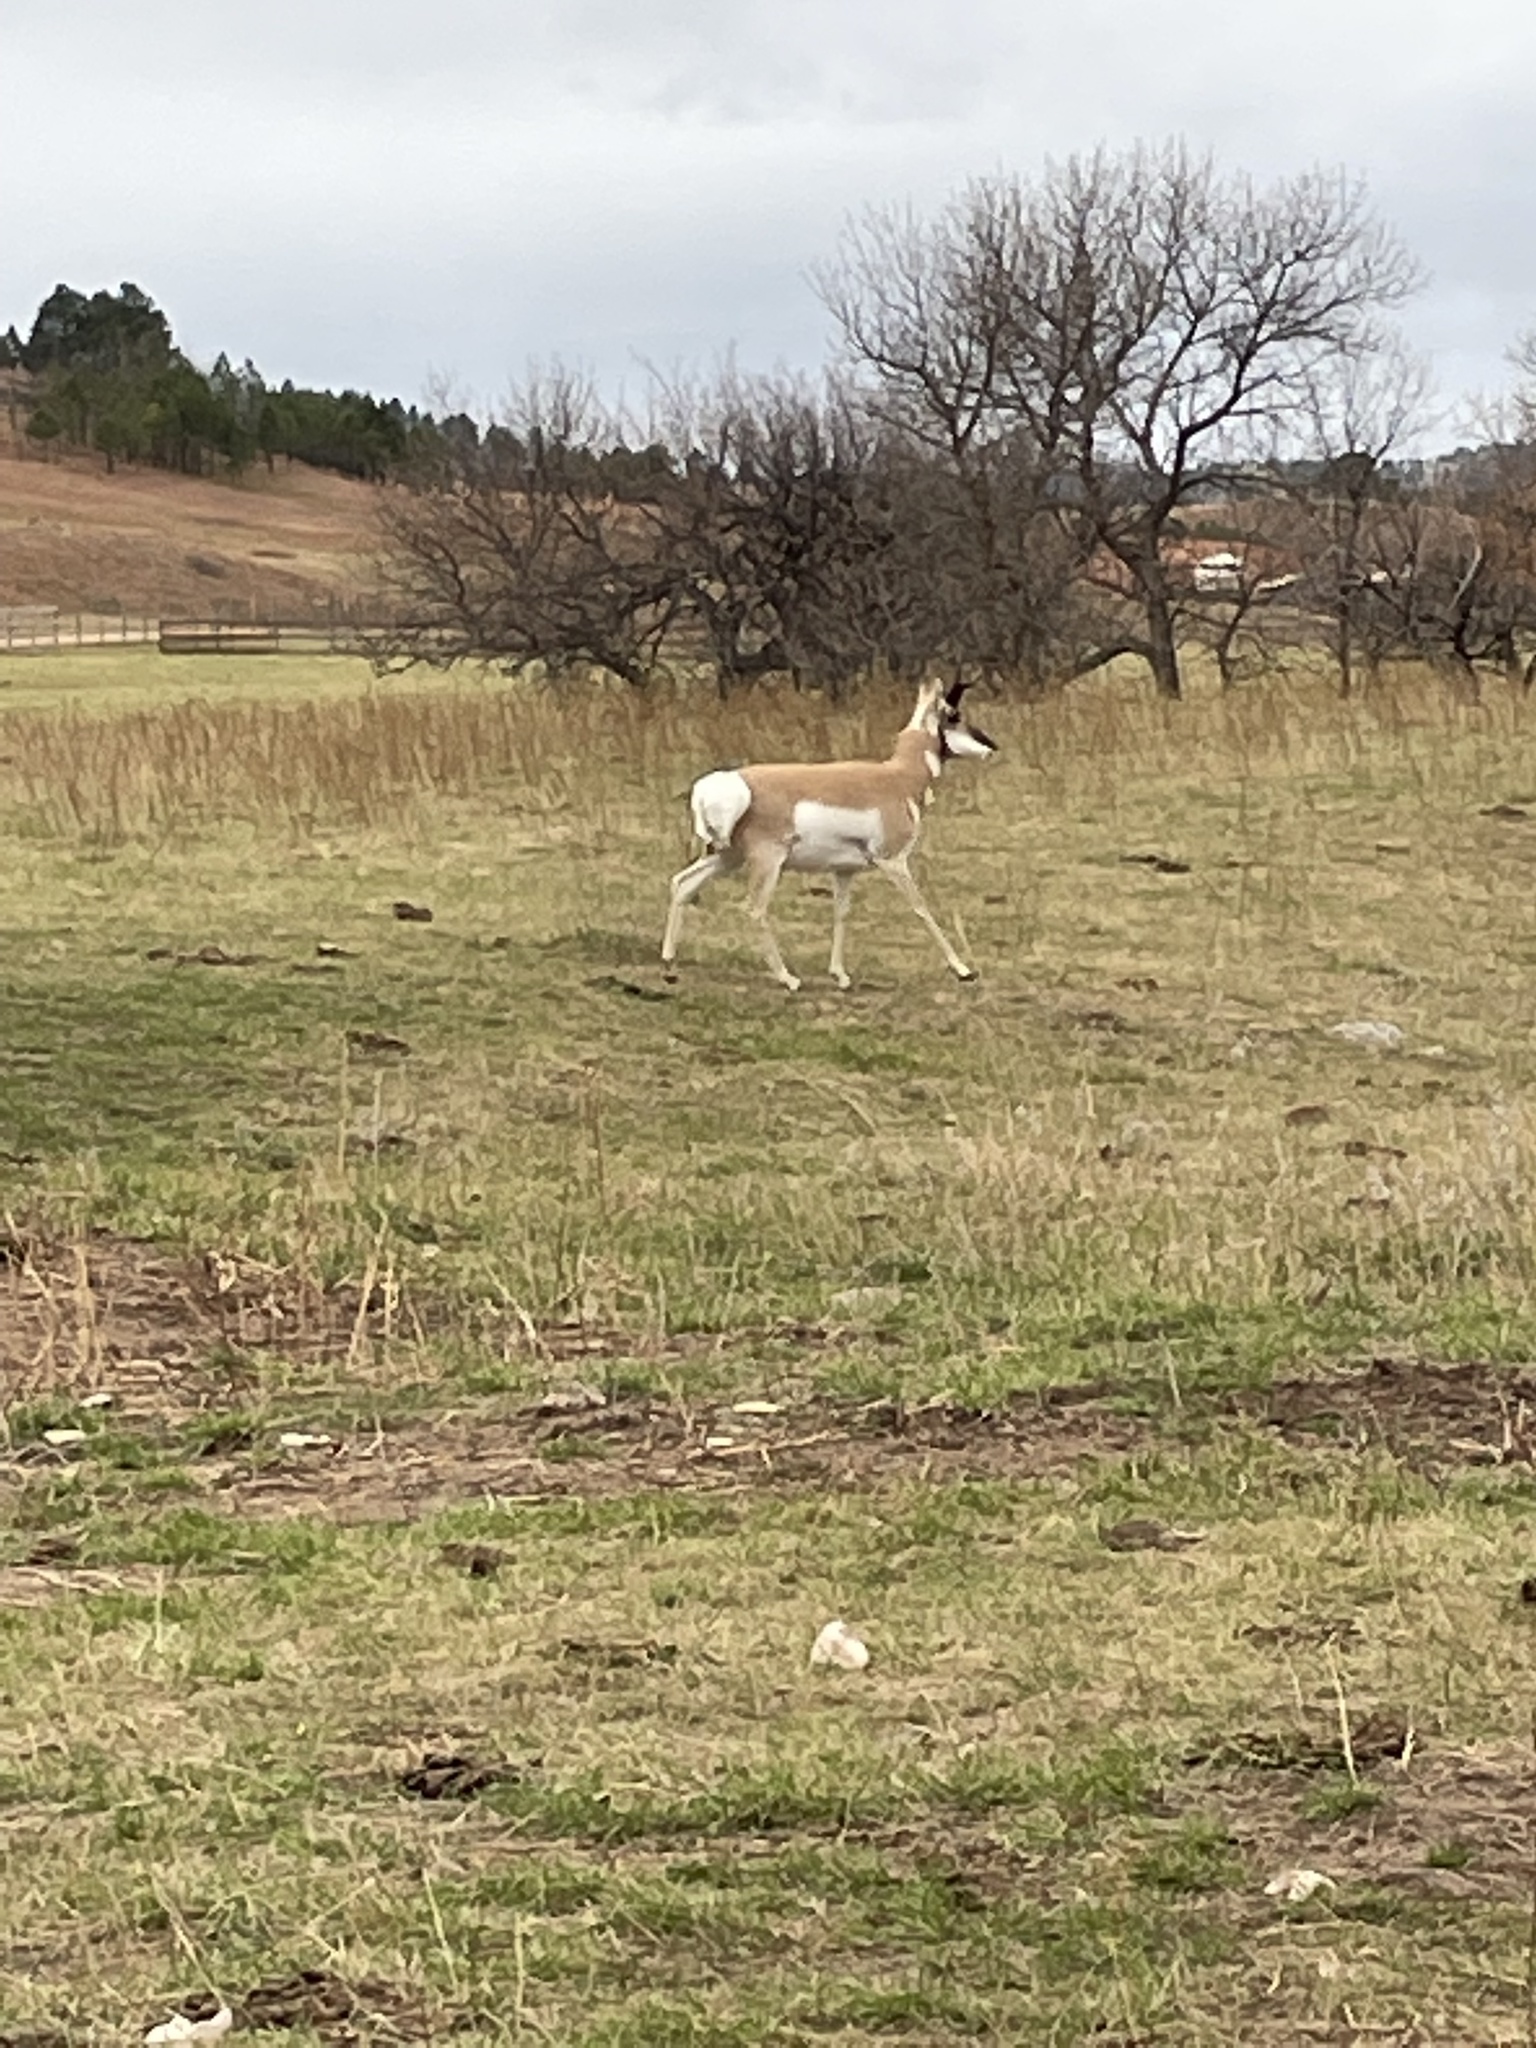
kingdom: Animalia
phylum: Chordata
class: Mammalia
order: Artiodactyla
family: Antilocapridae
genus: Antilocapra
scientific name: Antilocapra americana
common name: Pronghorn
